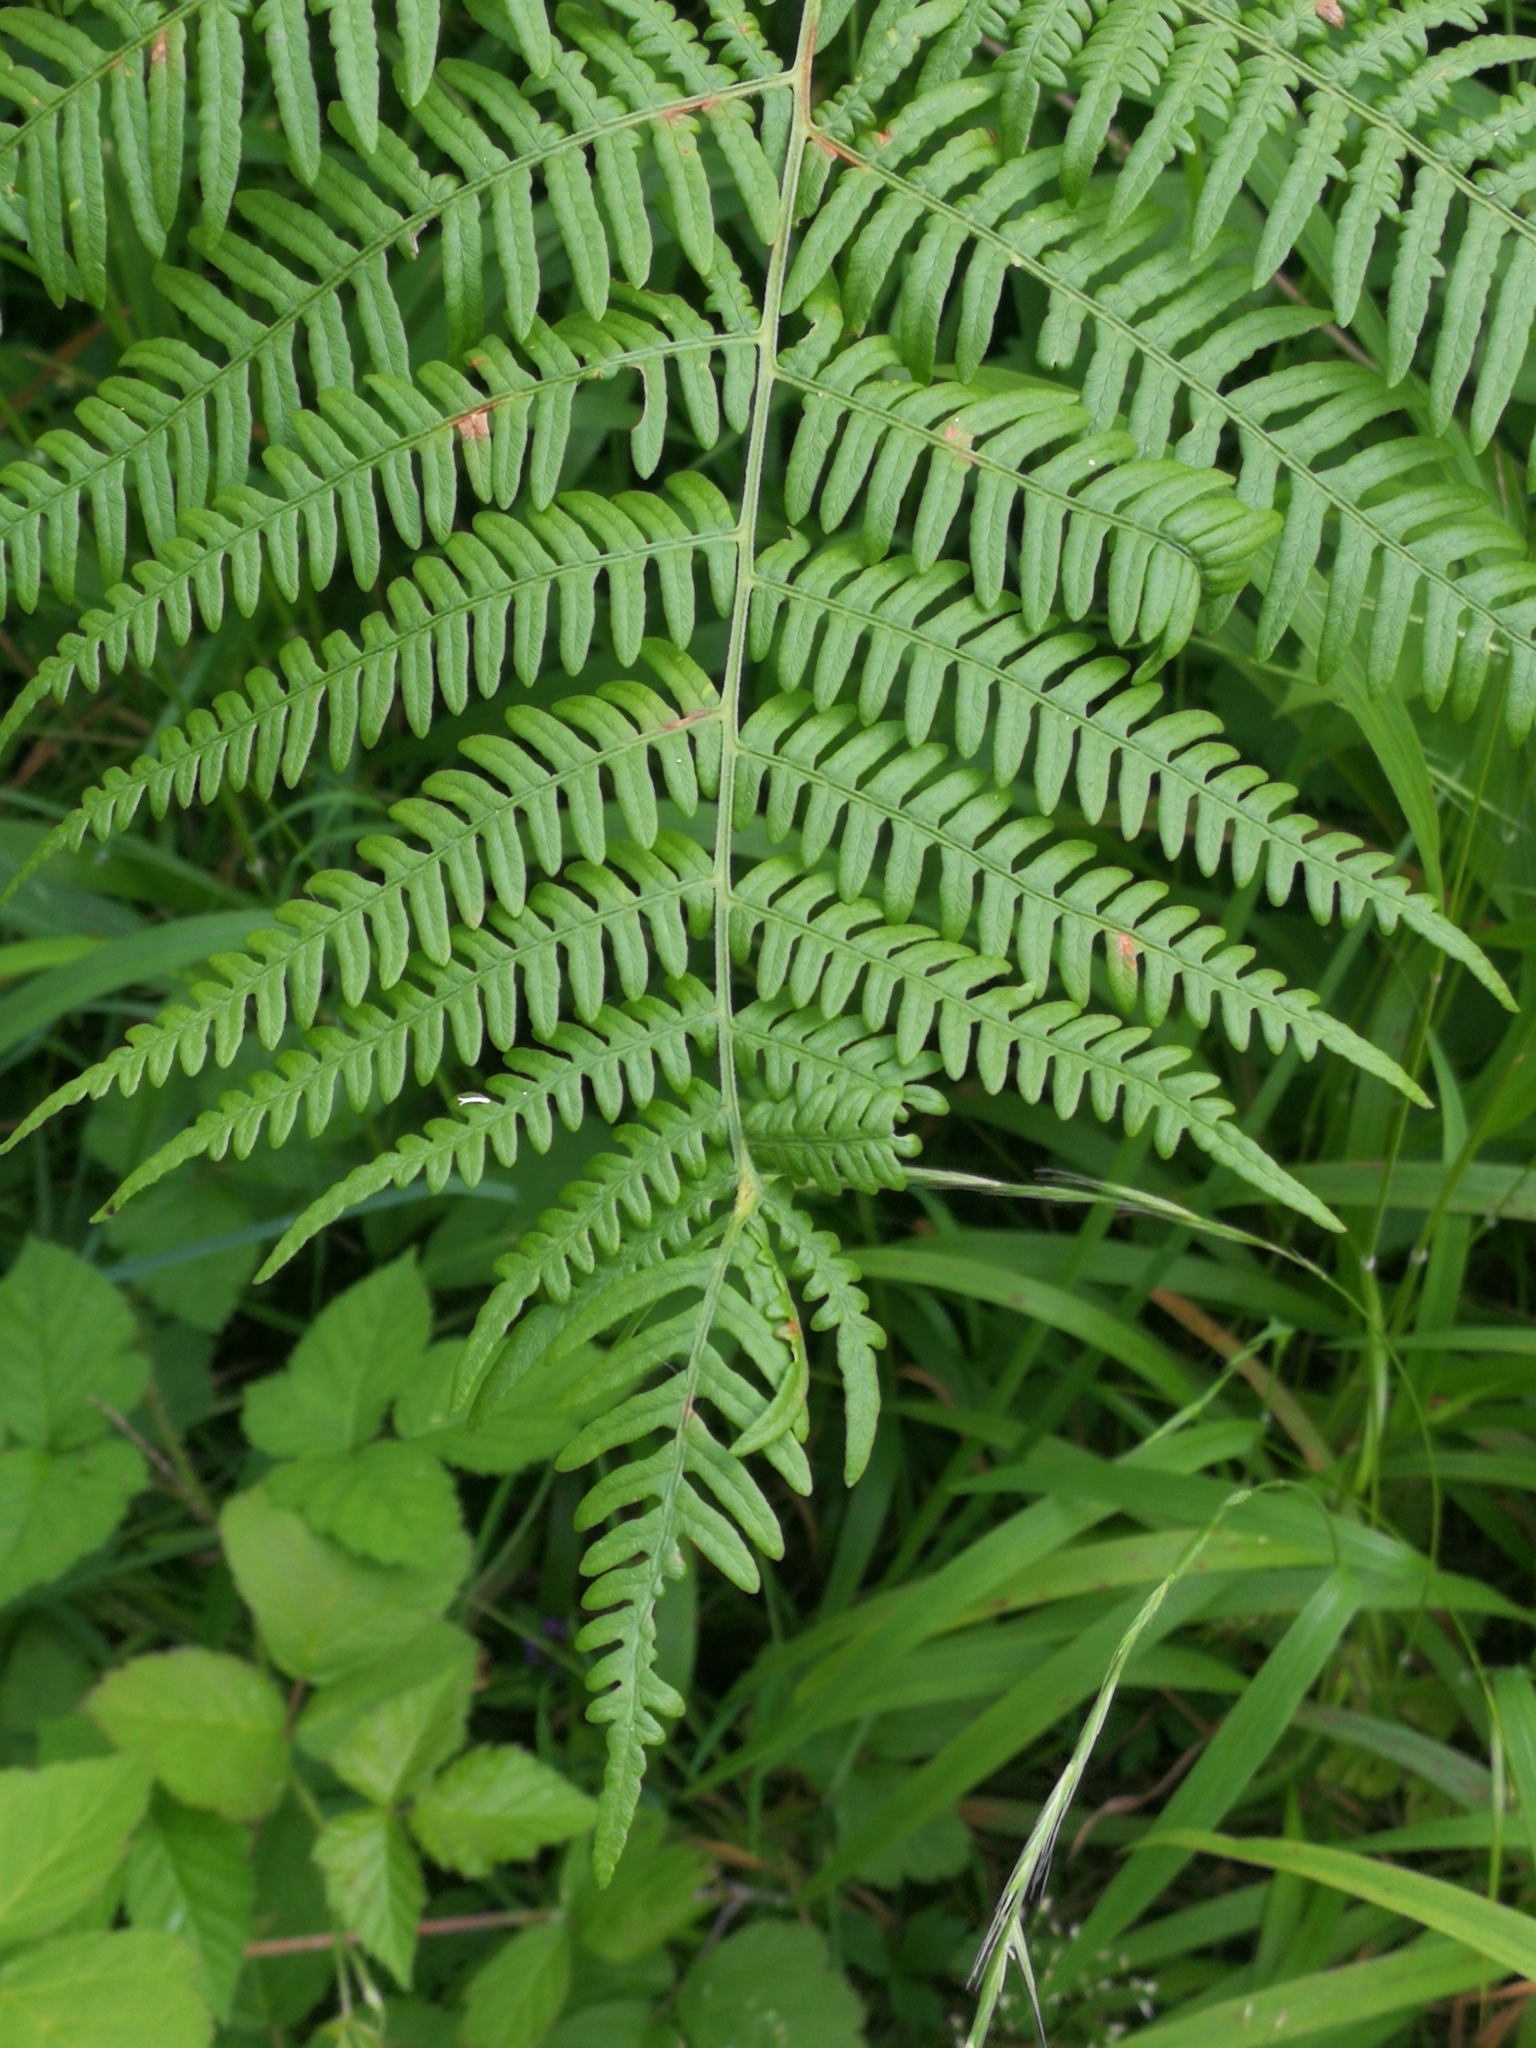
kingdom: Plantae
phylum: Tracheophyta
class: Polypodiopsida
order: Polypodiales
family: Dennstaedtiaceae
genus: Pteridium
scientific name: Pteridium aquilinum
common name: Bracken
